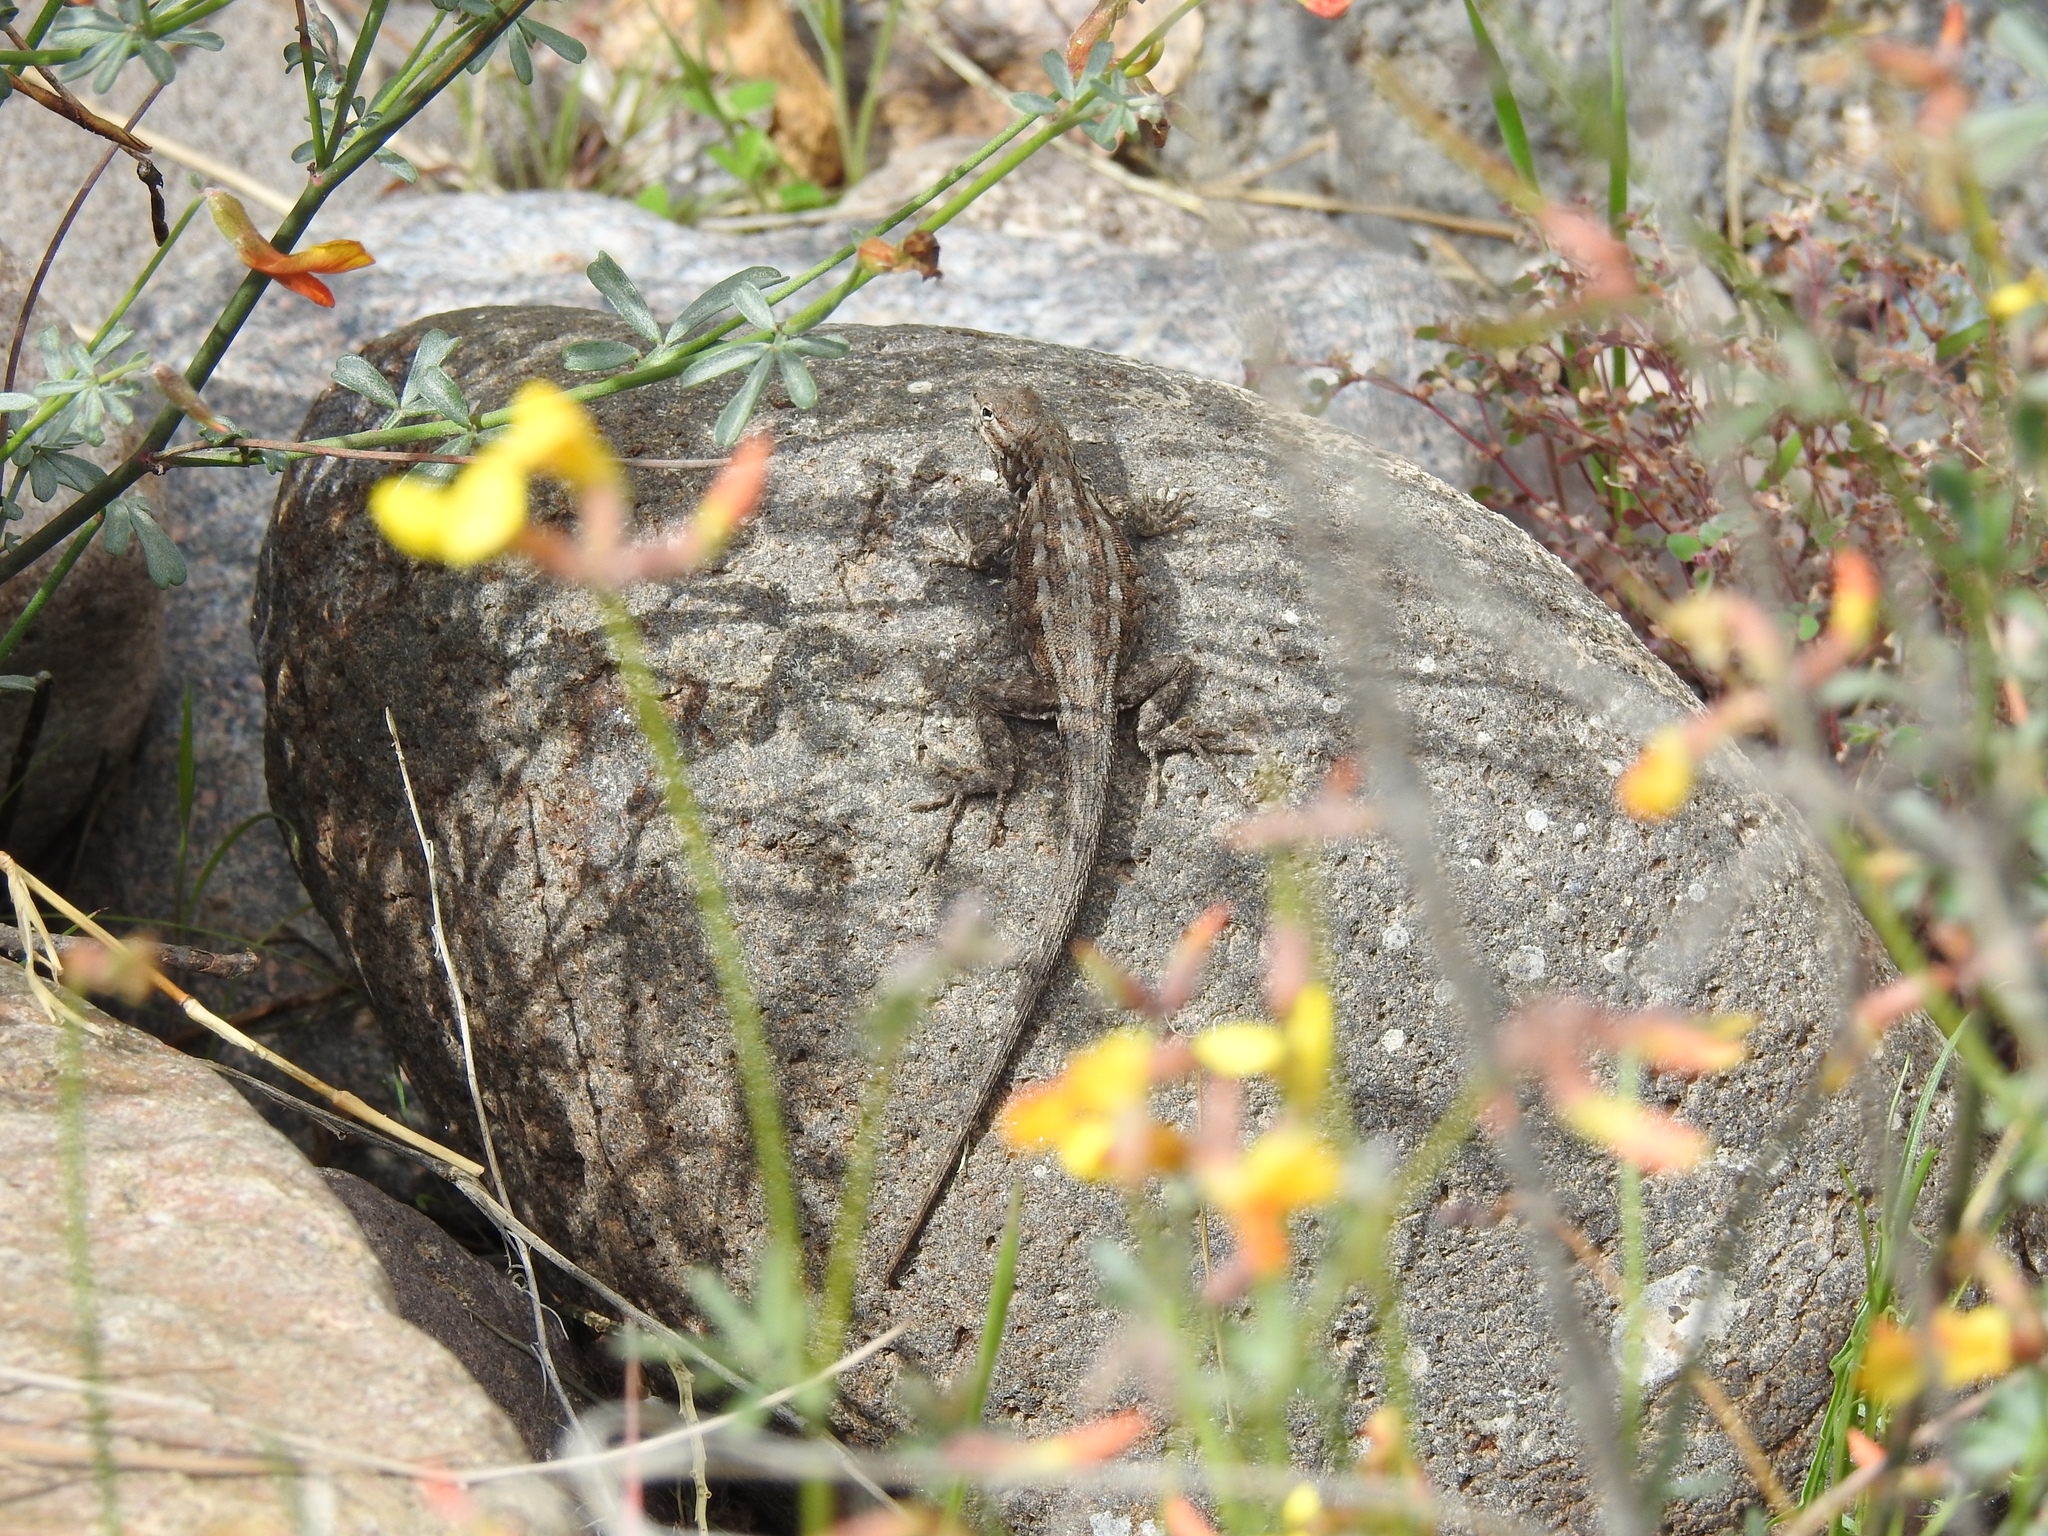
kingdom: Animalia
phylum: Chordata
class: Squamata
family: Phrynosomatidae
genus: Uta
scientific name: Uta stansburiana
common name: Side-blotched lizard
